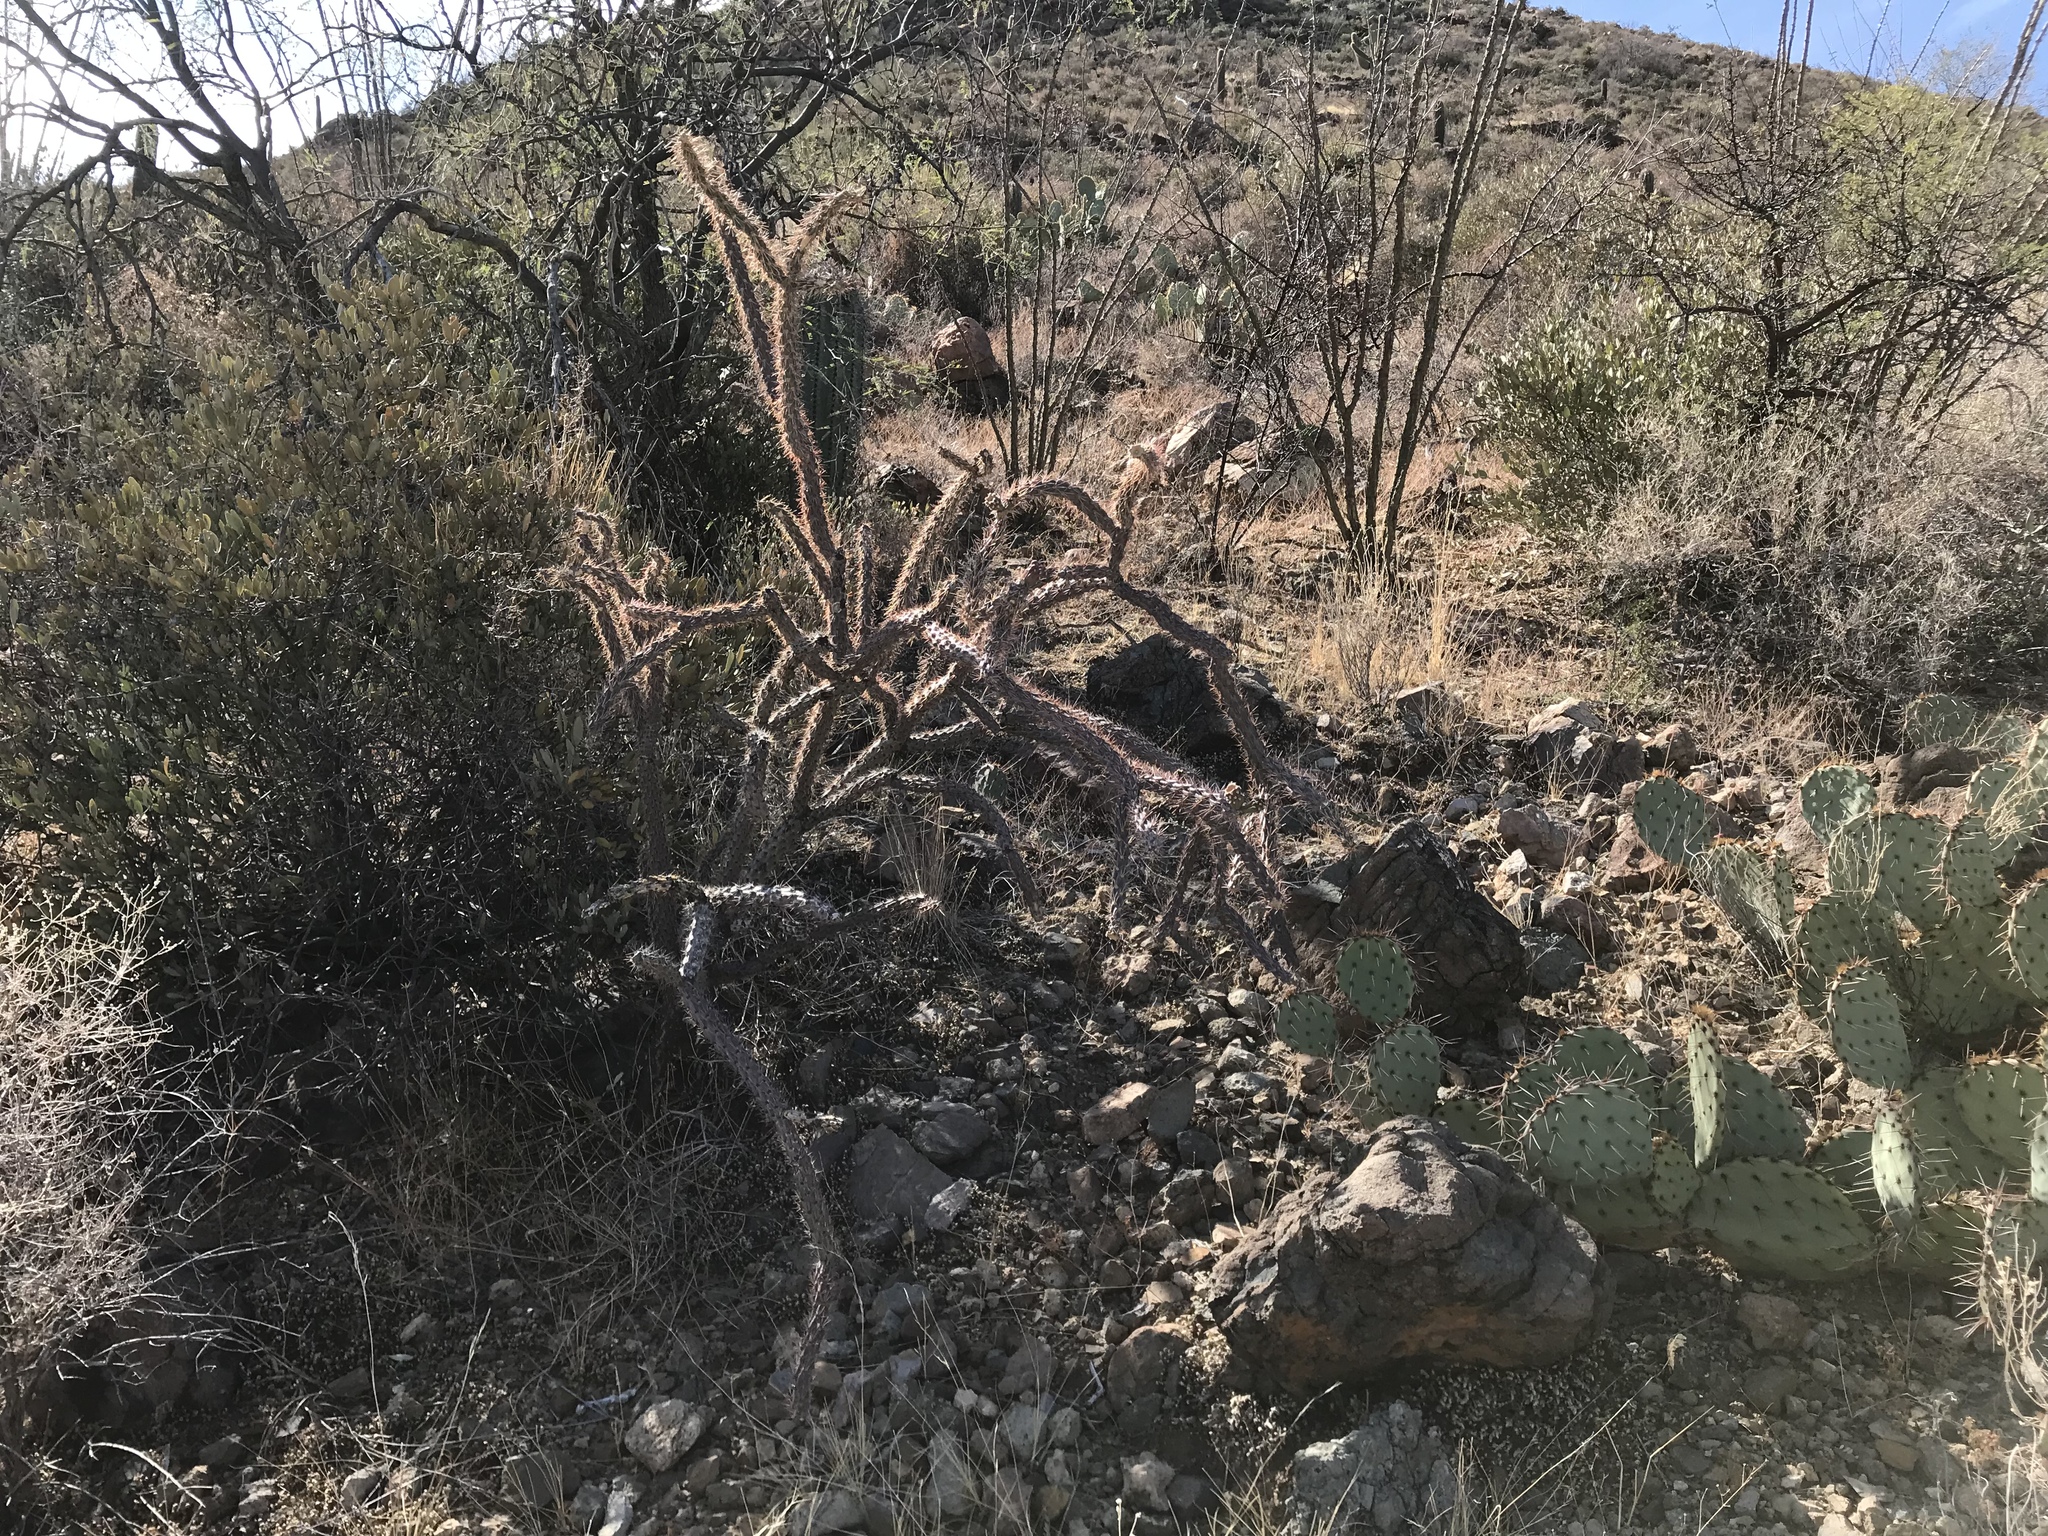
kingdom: Plantae
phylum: Tracheophyta
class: Magnoliopsida
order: Caryophyllales
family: Cactaceae
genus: Cylindropuntia
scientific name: Cylindropuntia thurberi
